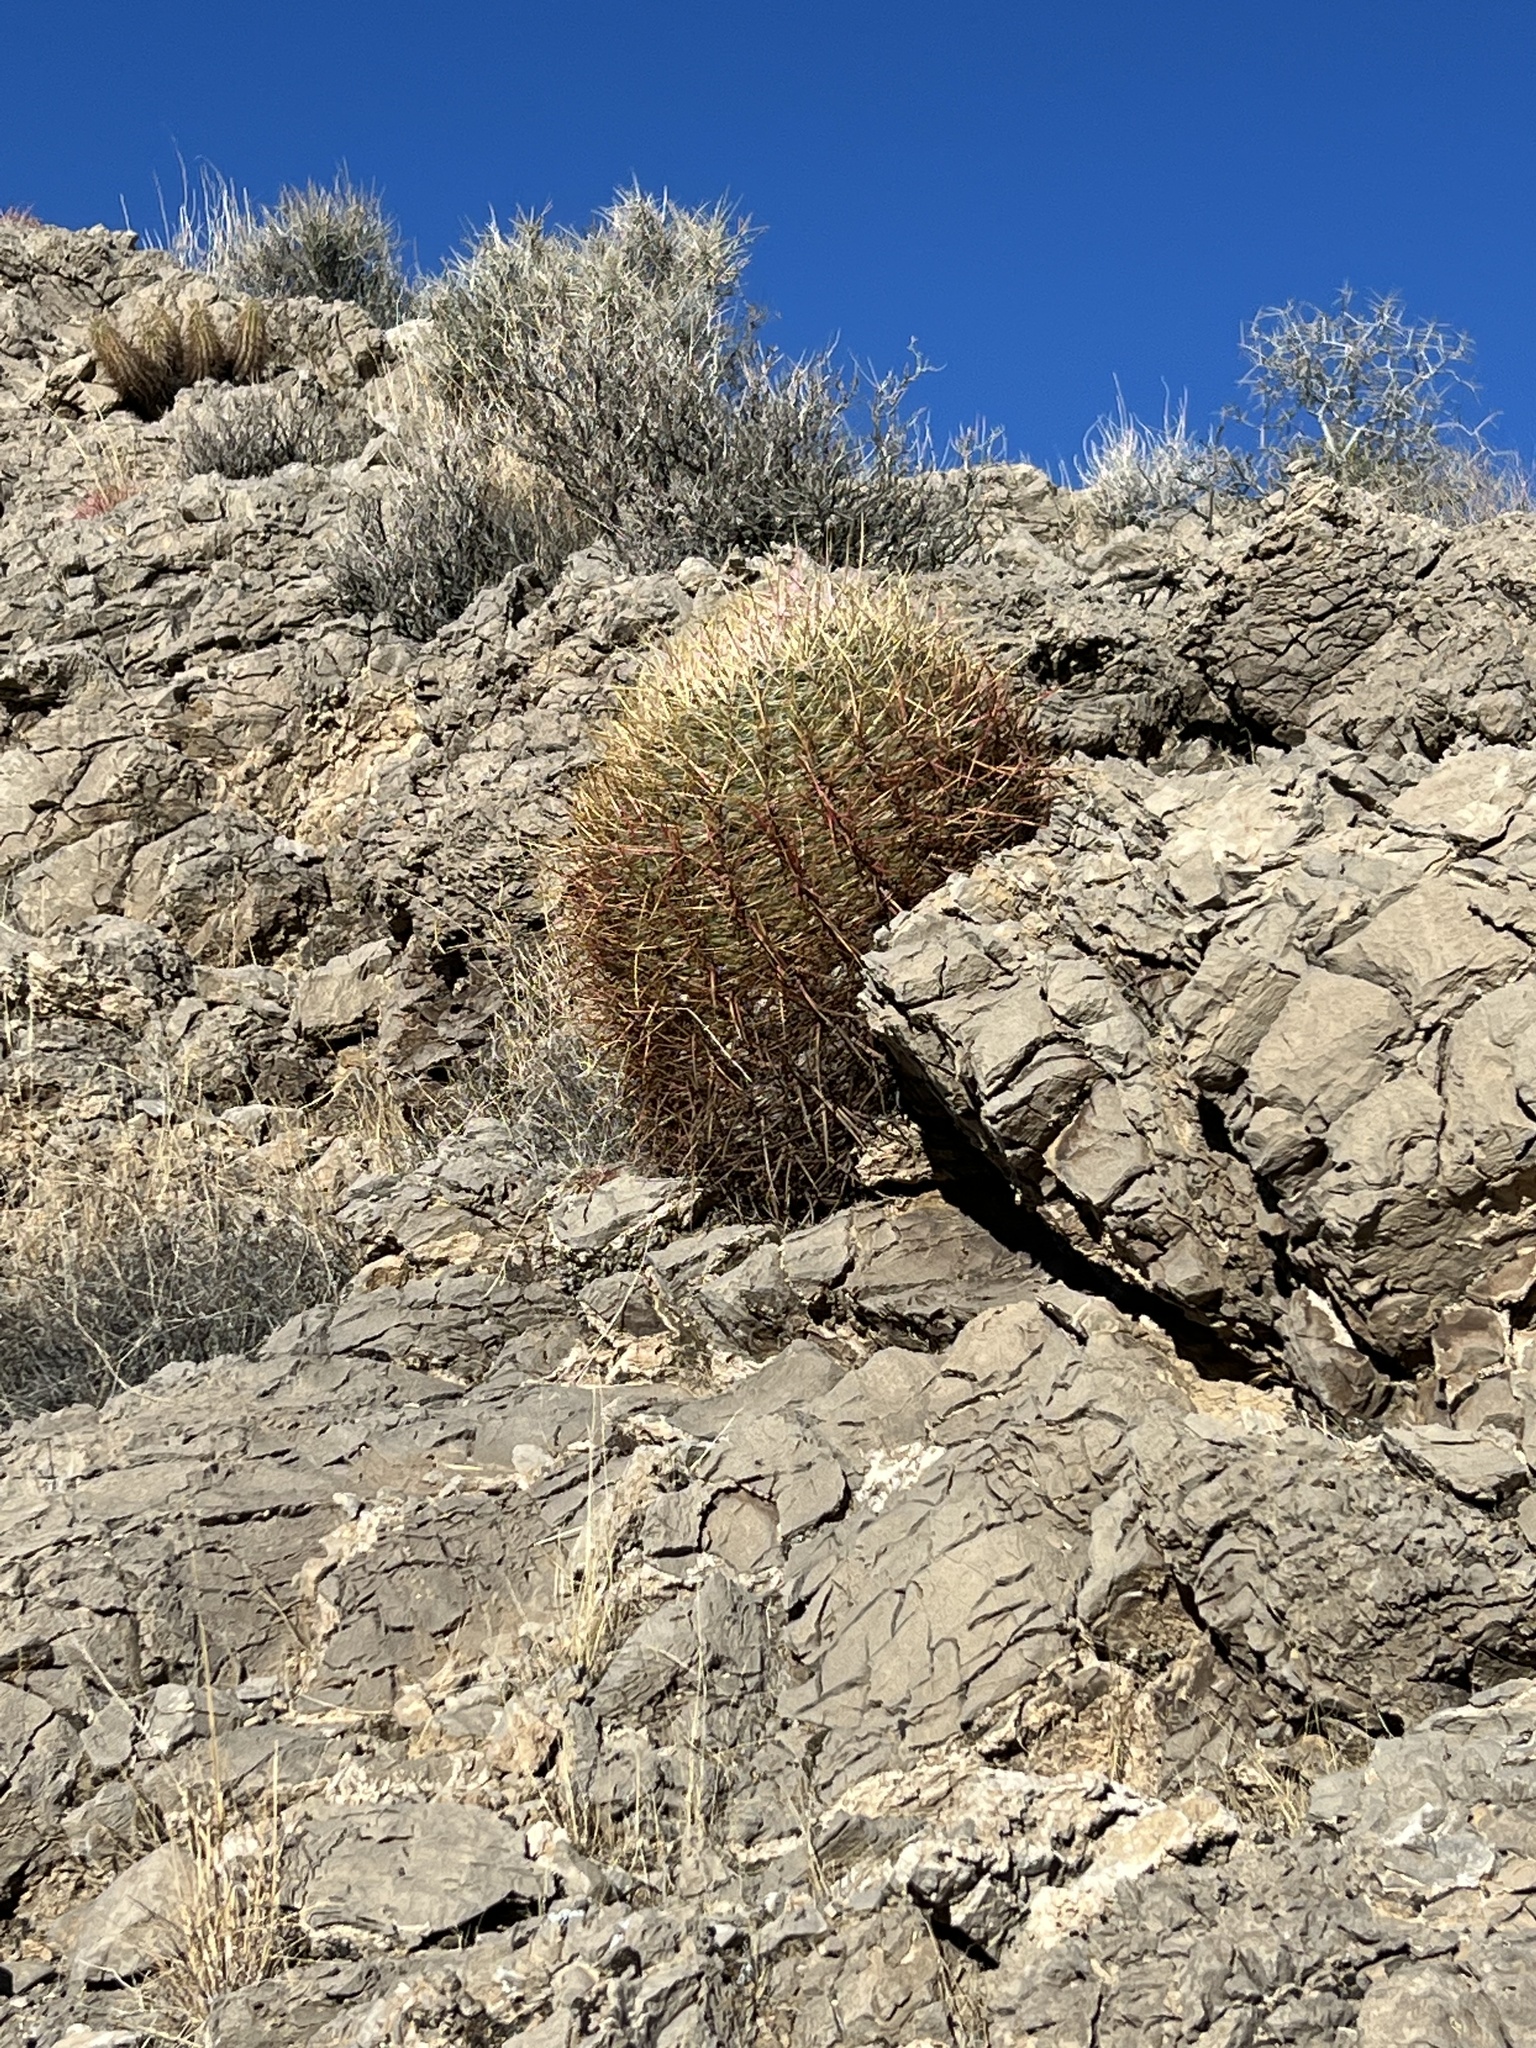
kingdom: Plantae
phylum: Tracheophyta
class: Magnoliopsida
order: Caryophyllales
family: Cactaceae
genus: Ferocactus
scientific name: Ferocactus cylindraceus
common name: California barrel cactus
